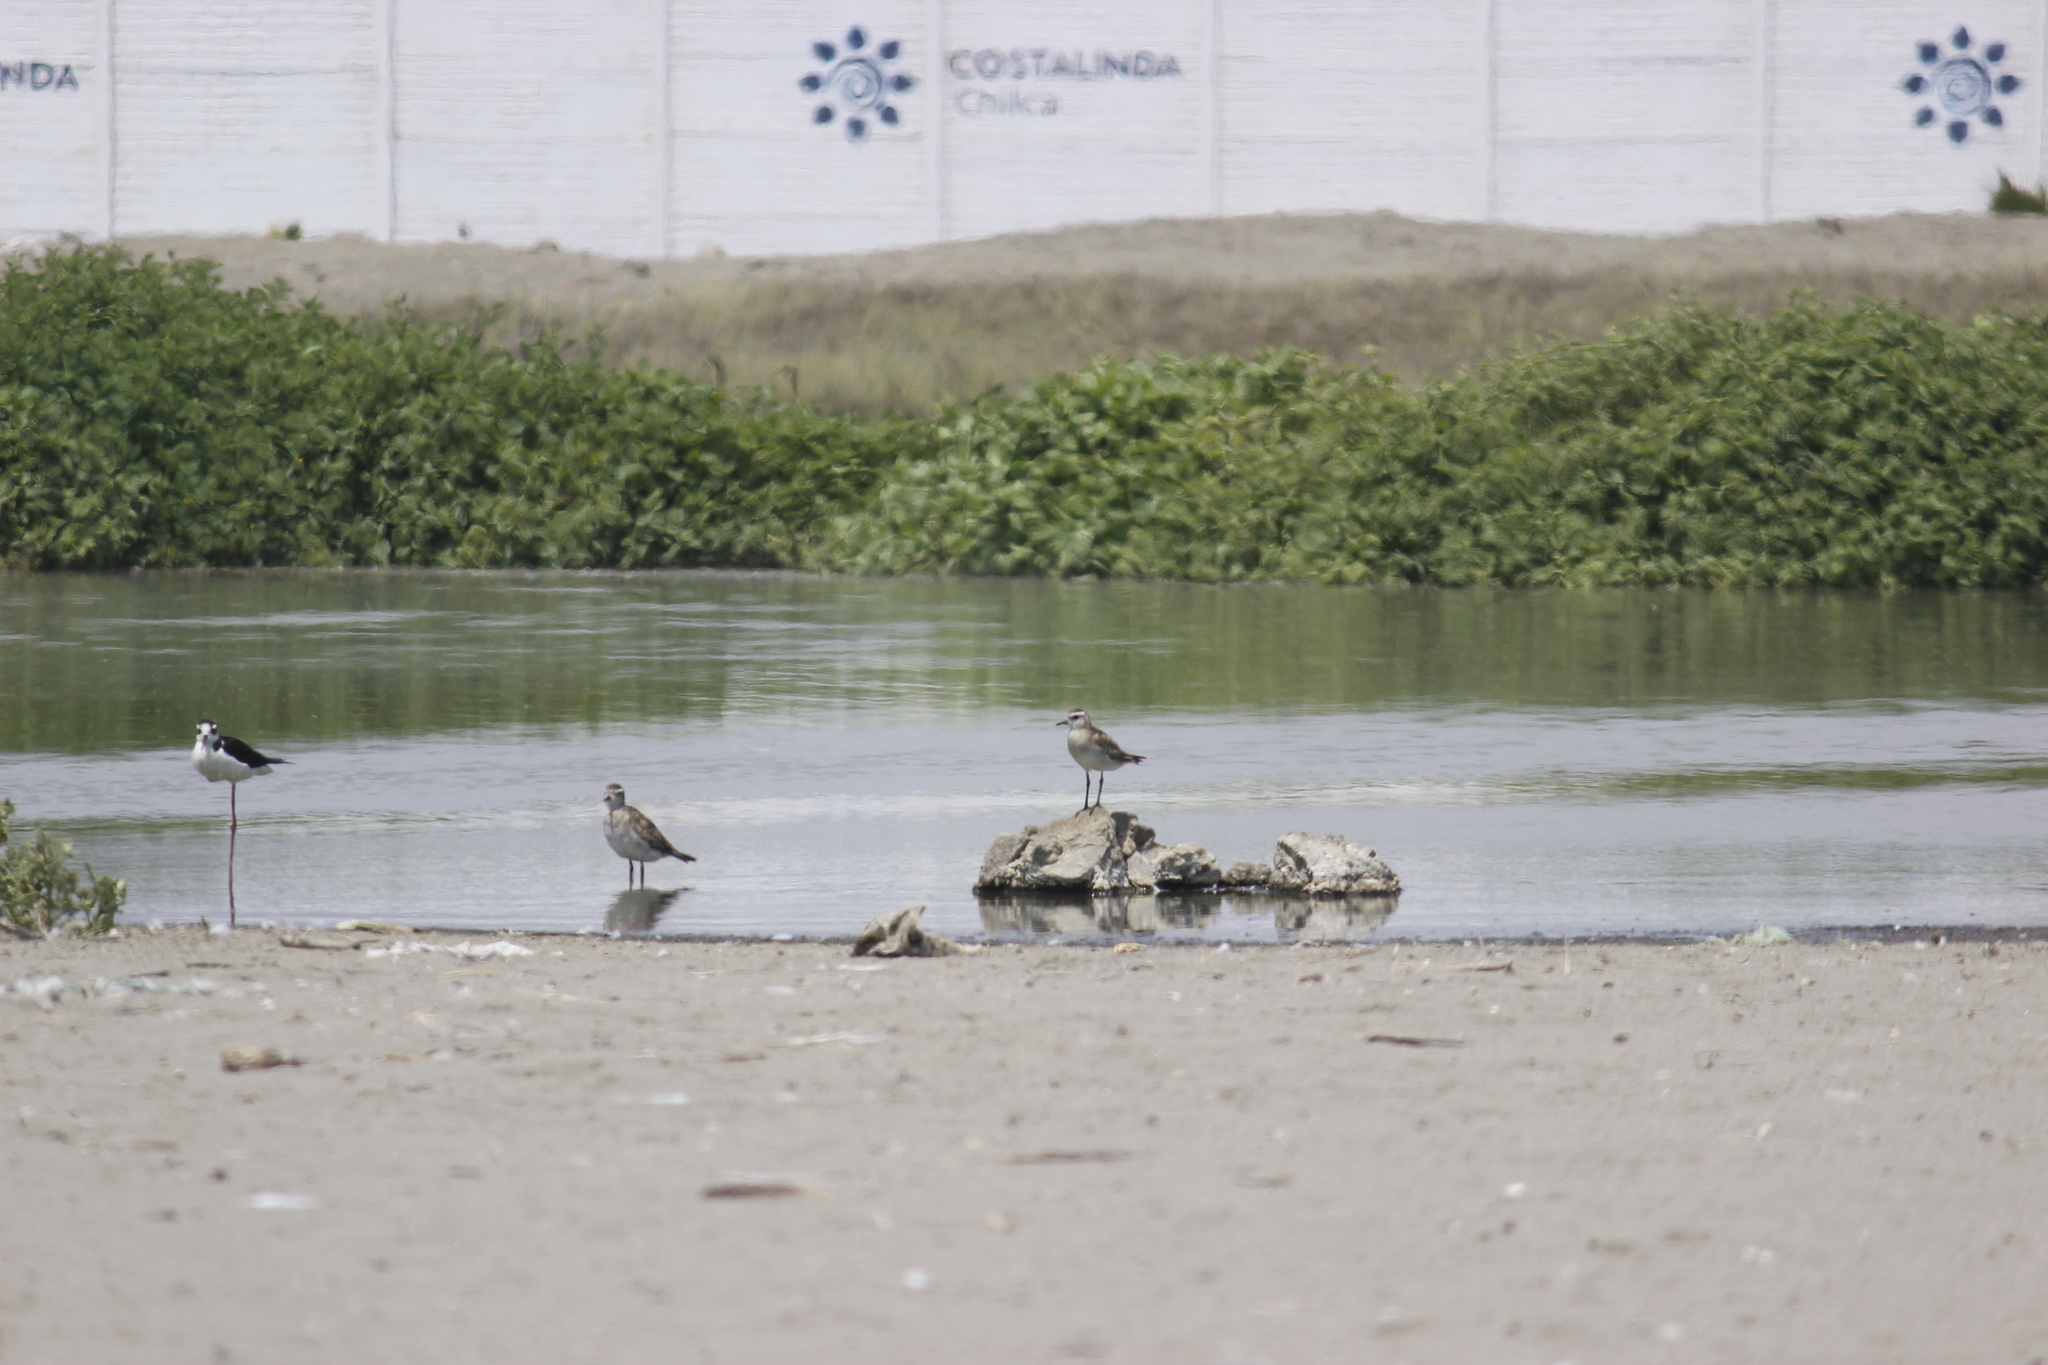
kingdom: Animalia
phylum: Chordata
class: Aves
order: Charadriiformes
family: Charadriidae
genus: Pluvialis
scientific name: Pluvialis dominica
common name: American golden plover
